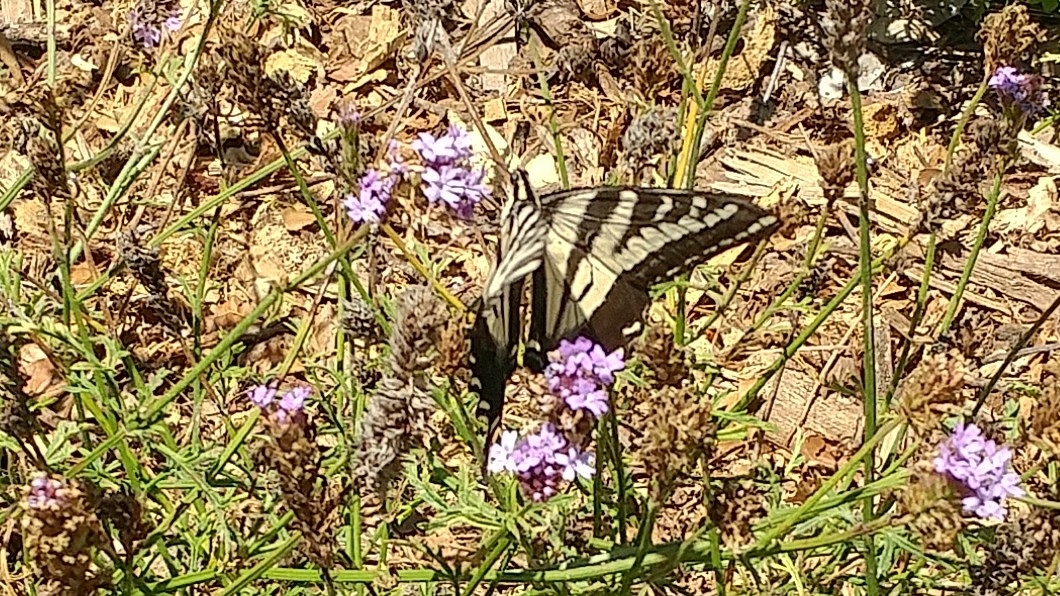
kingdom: Animalia
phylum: Arthropoda
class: Insecta
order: Lepidoptera
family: Papilionidae
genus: Papilio
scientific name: Papilio eurymedon
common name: Pale tiger swallowtail
